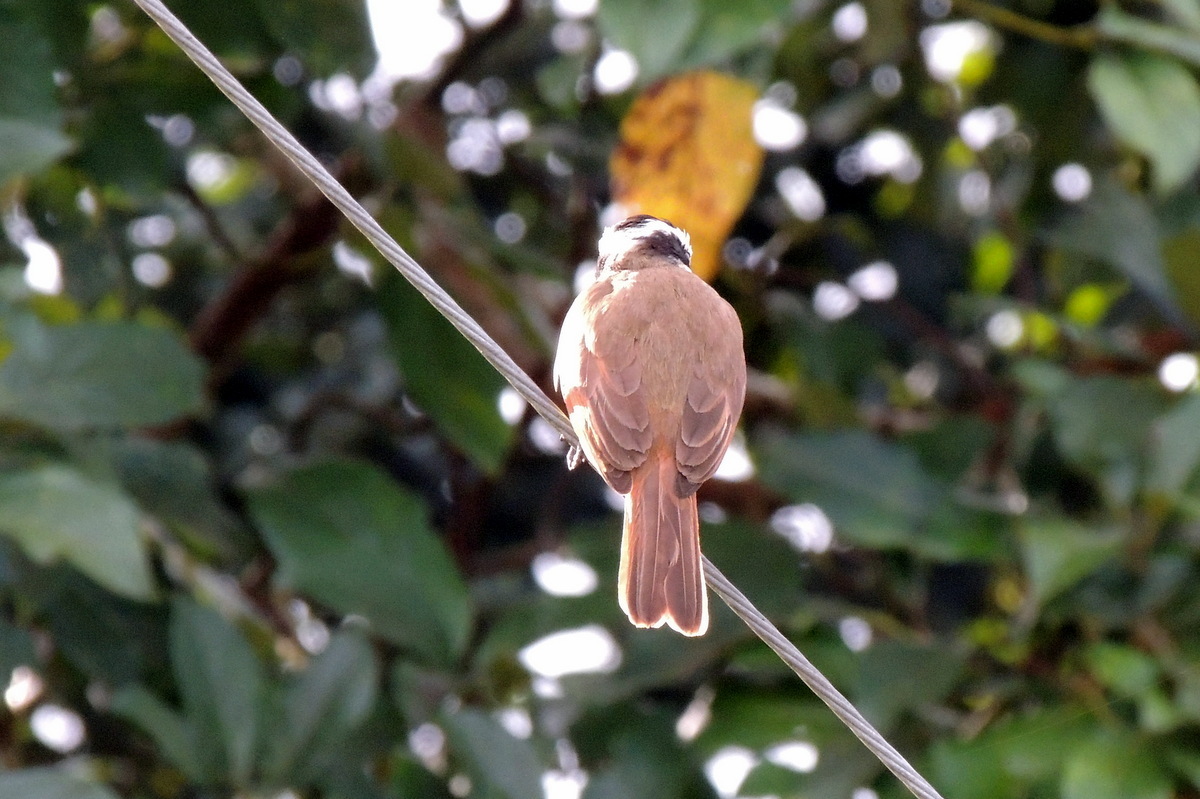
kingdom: Animalia
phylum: Chordata
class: Aves
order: Passeriformes
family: Tyrannidae
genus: Pitangus
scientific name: Pitangus sulphuratus
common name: Great kiskadee
